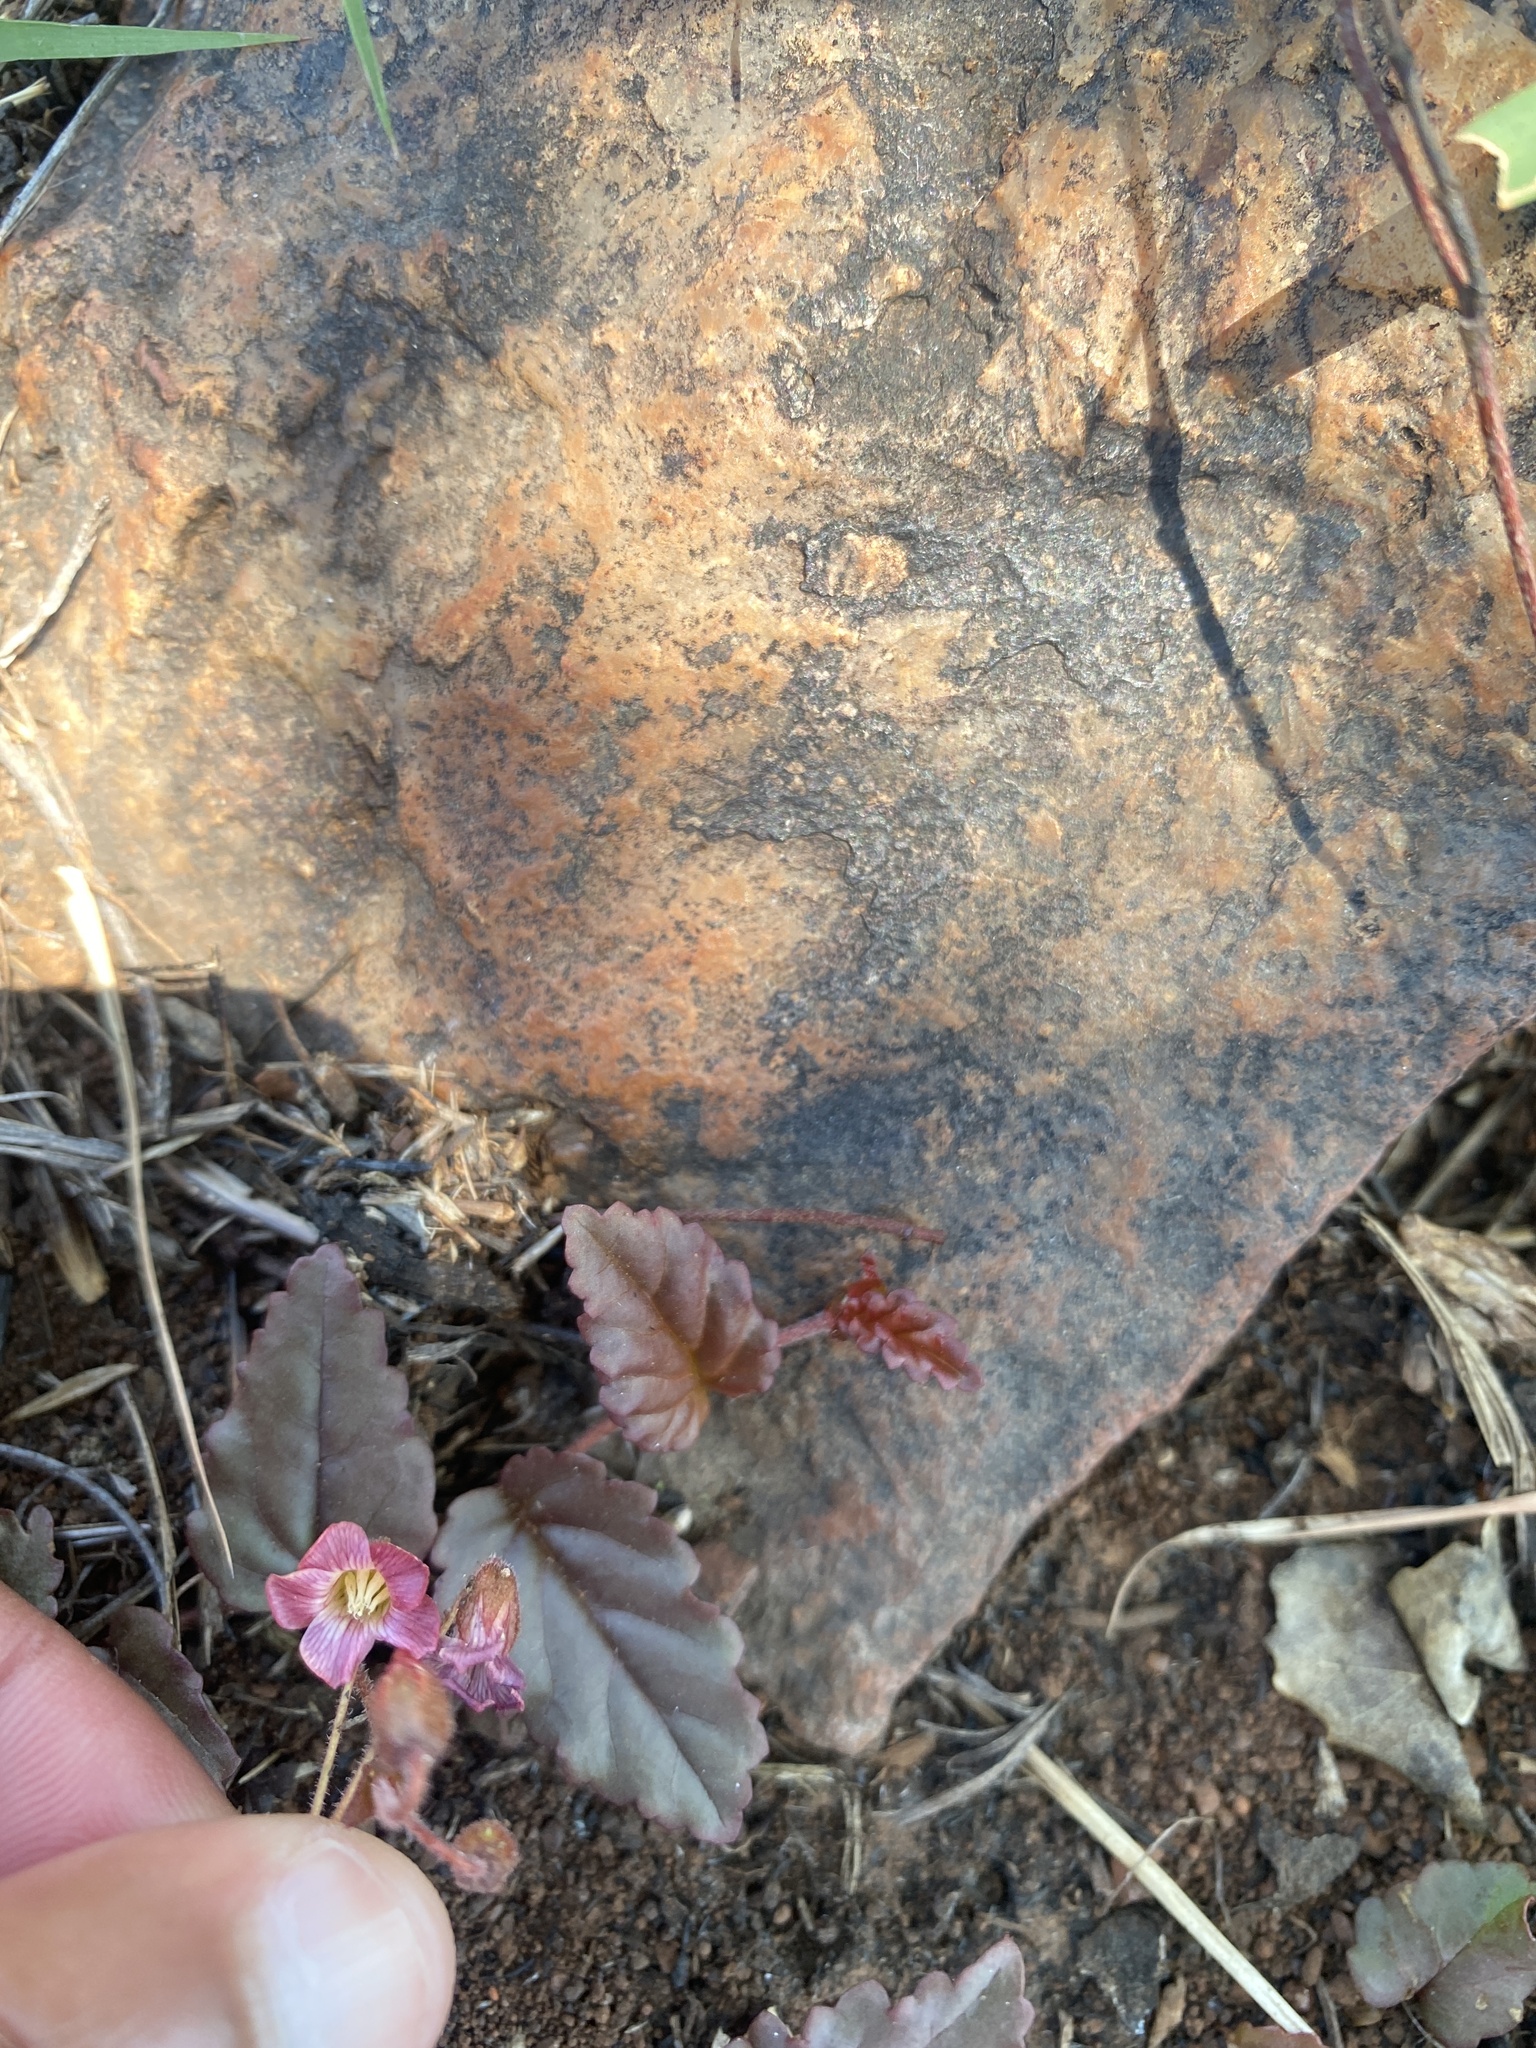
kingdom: Plantae
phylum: Tracheophyta
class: Magnoliopsida
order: Malvales
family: Malvaceae
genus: Hermannia
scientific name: Hermannia depressa
